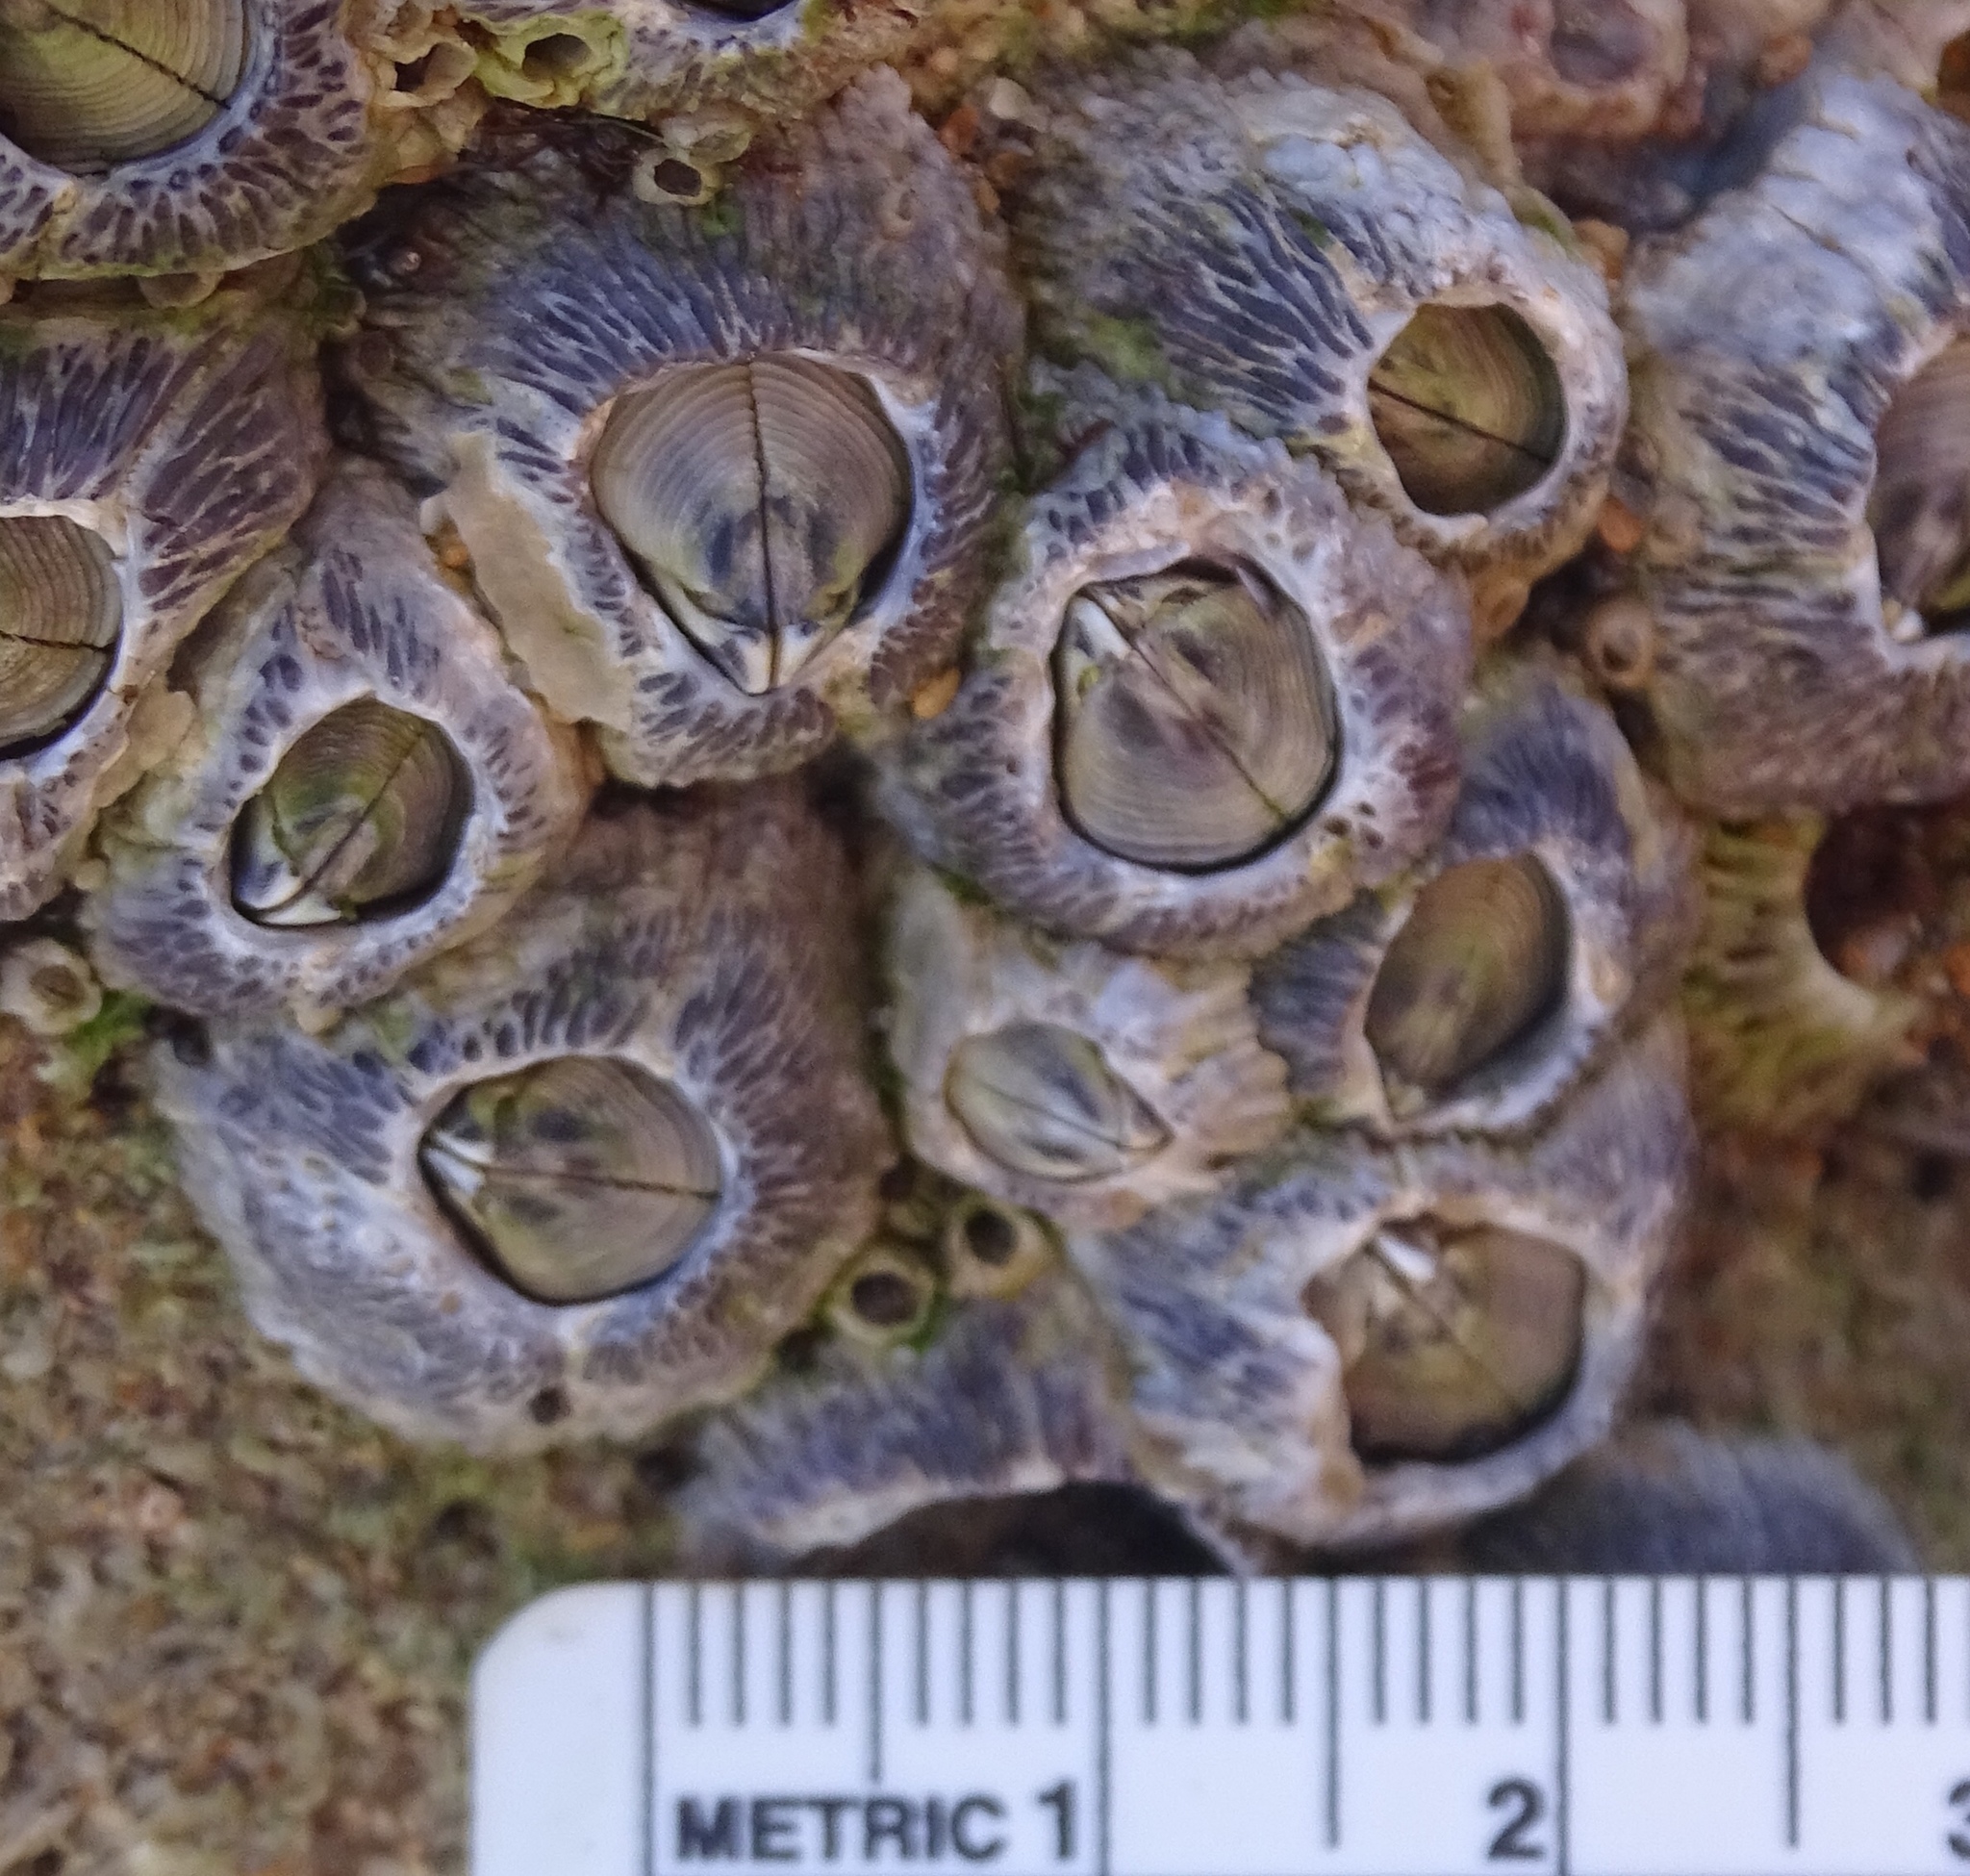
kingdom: Animalia
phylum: Arthropoda
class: Maxillopoda
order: Sessilia
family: Tetraclitidae
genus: Tetraclita
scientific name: Tetraclita stalactifera
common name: Ribbed barnacle
